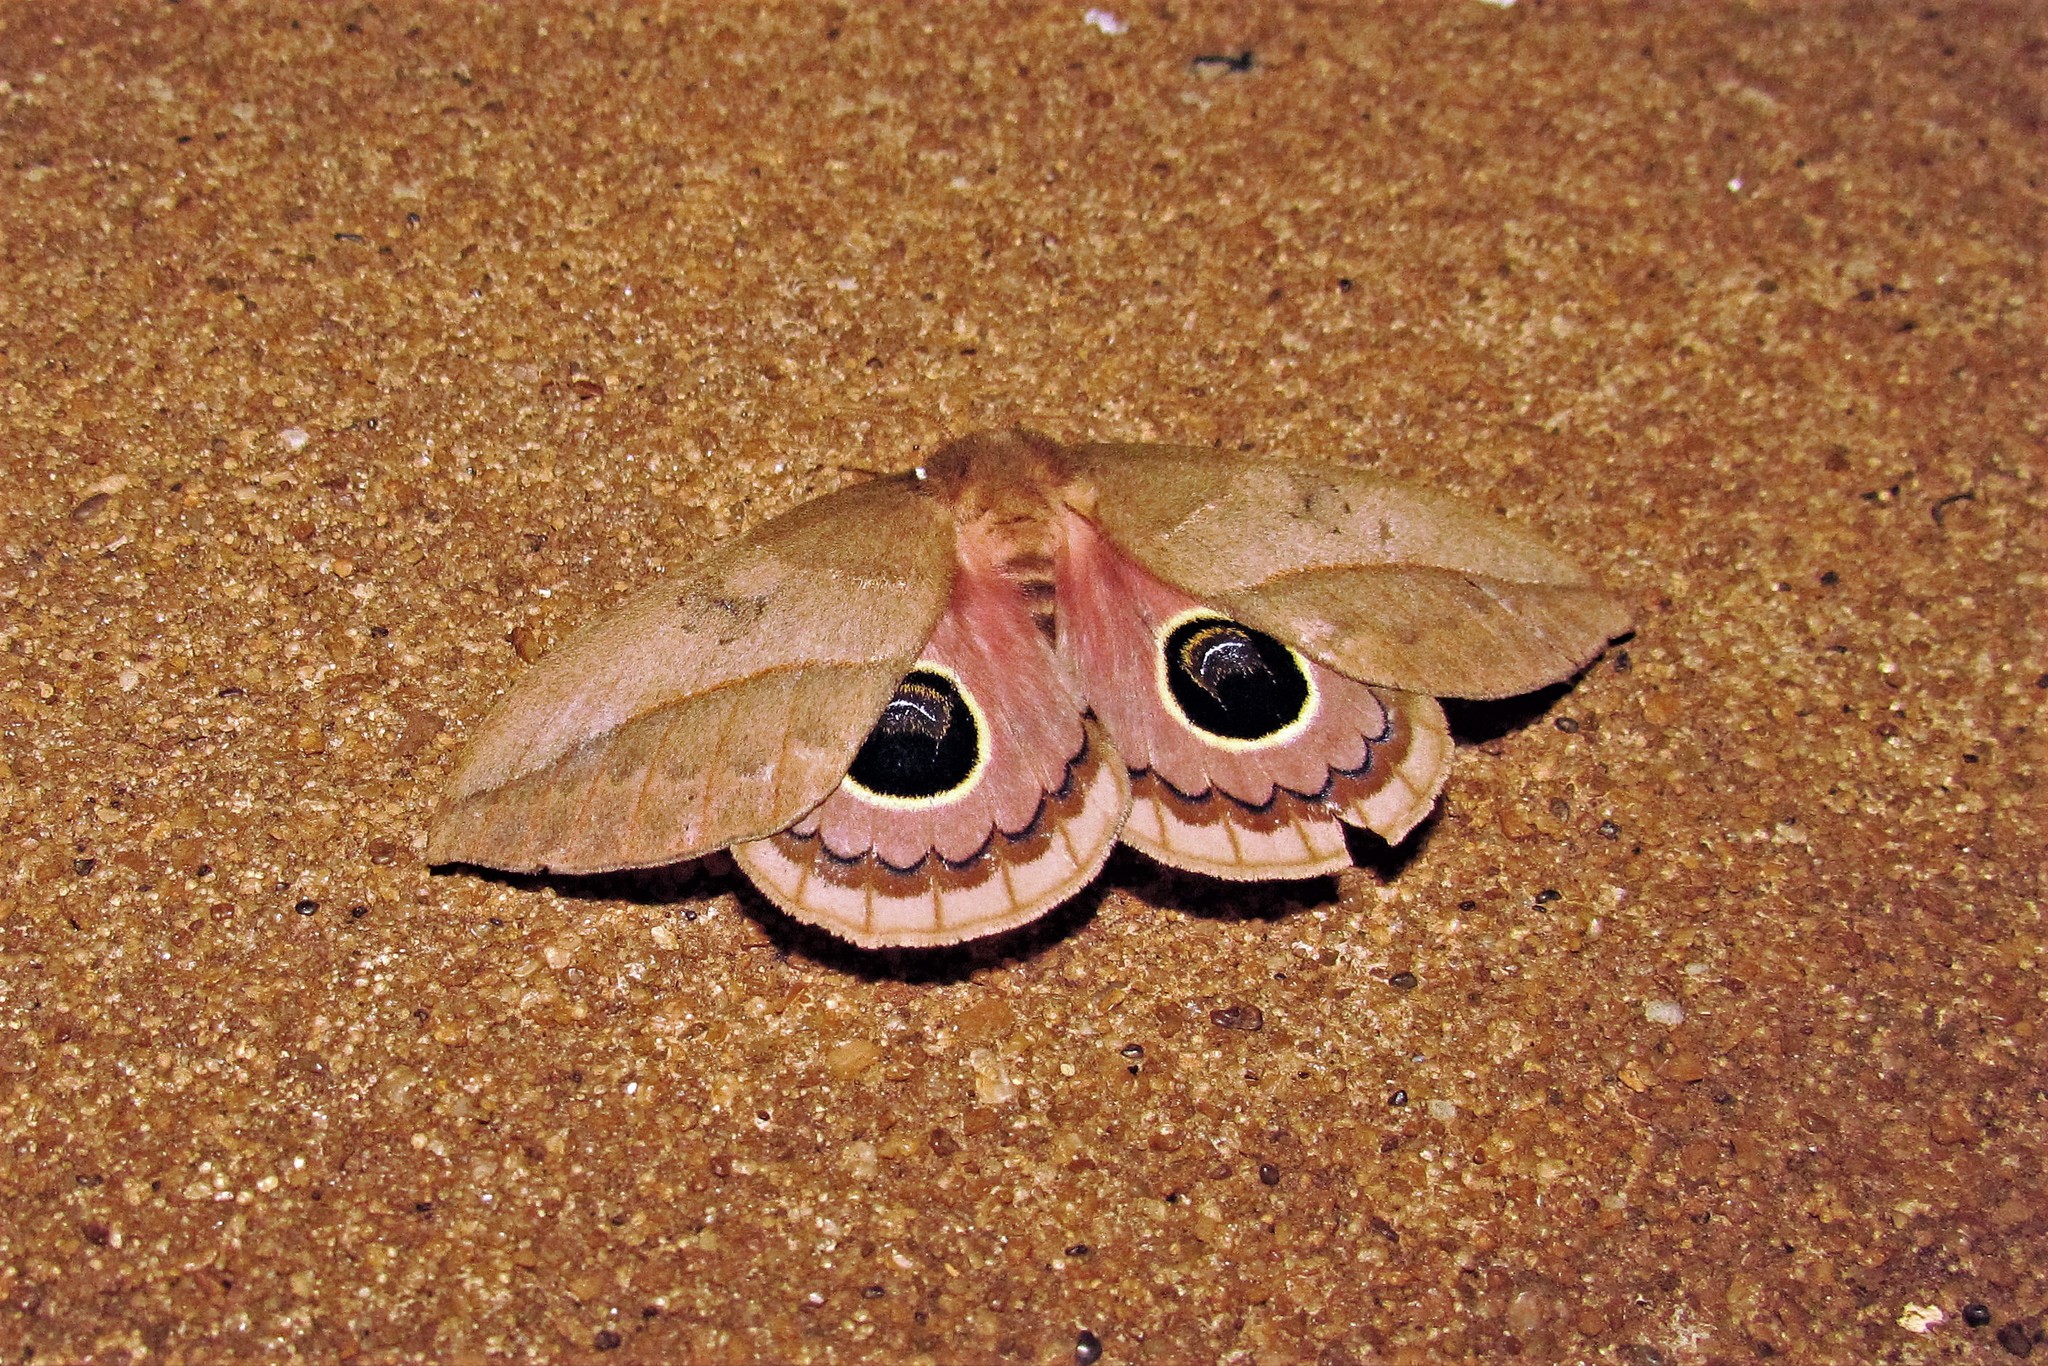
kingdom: Animalia
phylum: Arthropoda
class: Insecta
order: Lepidoptera
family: Saturniidae
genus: Pseudautomeris
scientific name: Pseudautomeris luteata
